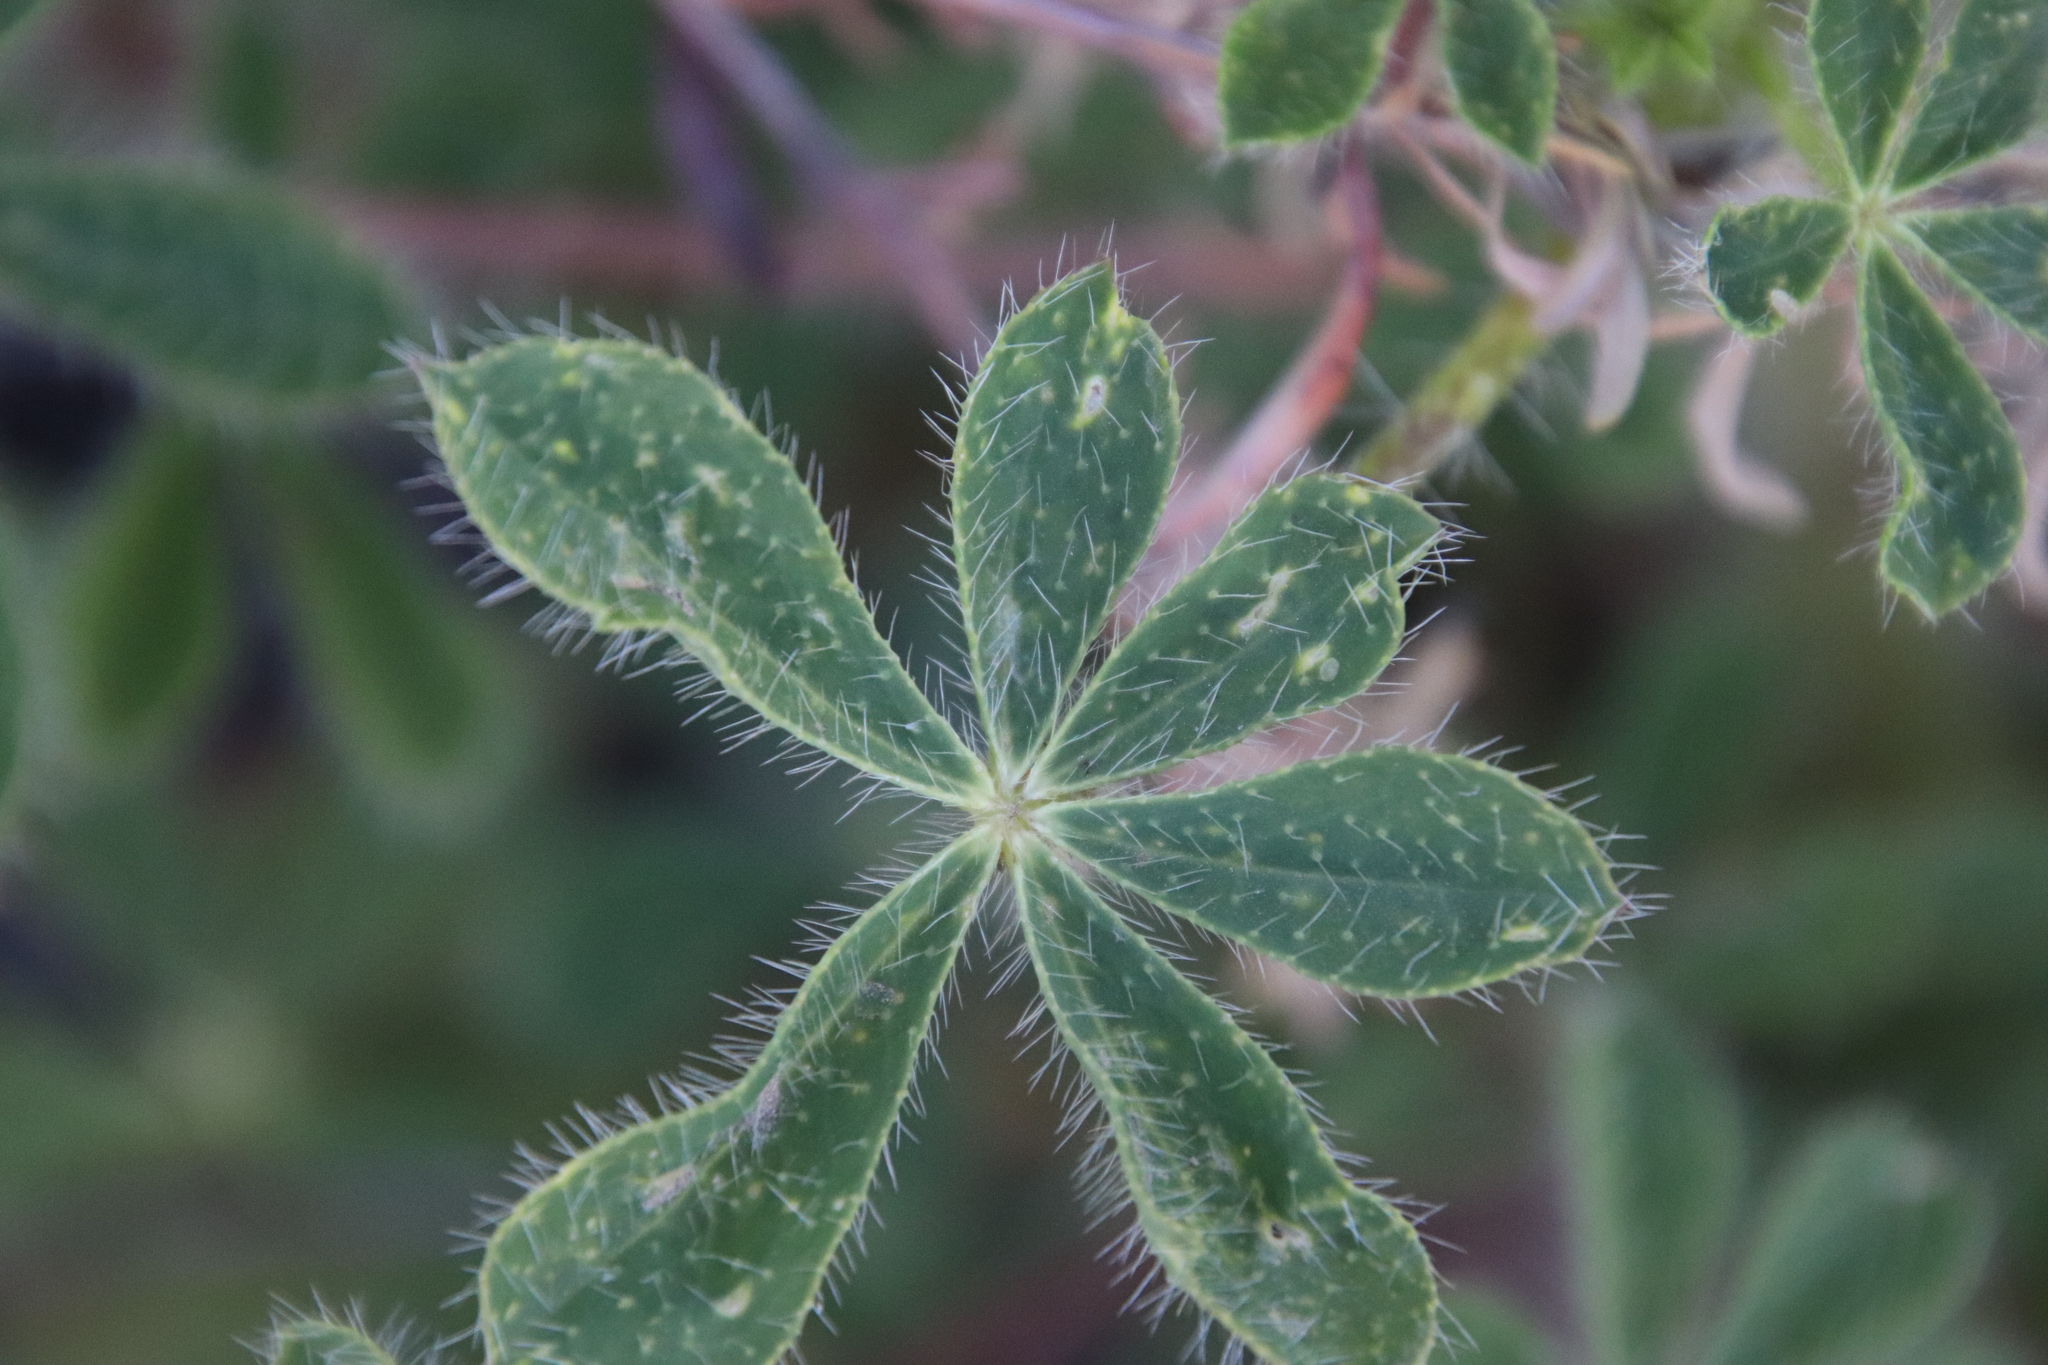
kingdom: Plantae
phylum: Tracheophyta
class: Magnoliopsida
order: Fabales
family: Fabaceae
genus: Lupinus
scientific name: Lupinus hirsutissimus
